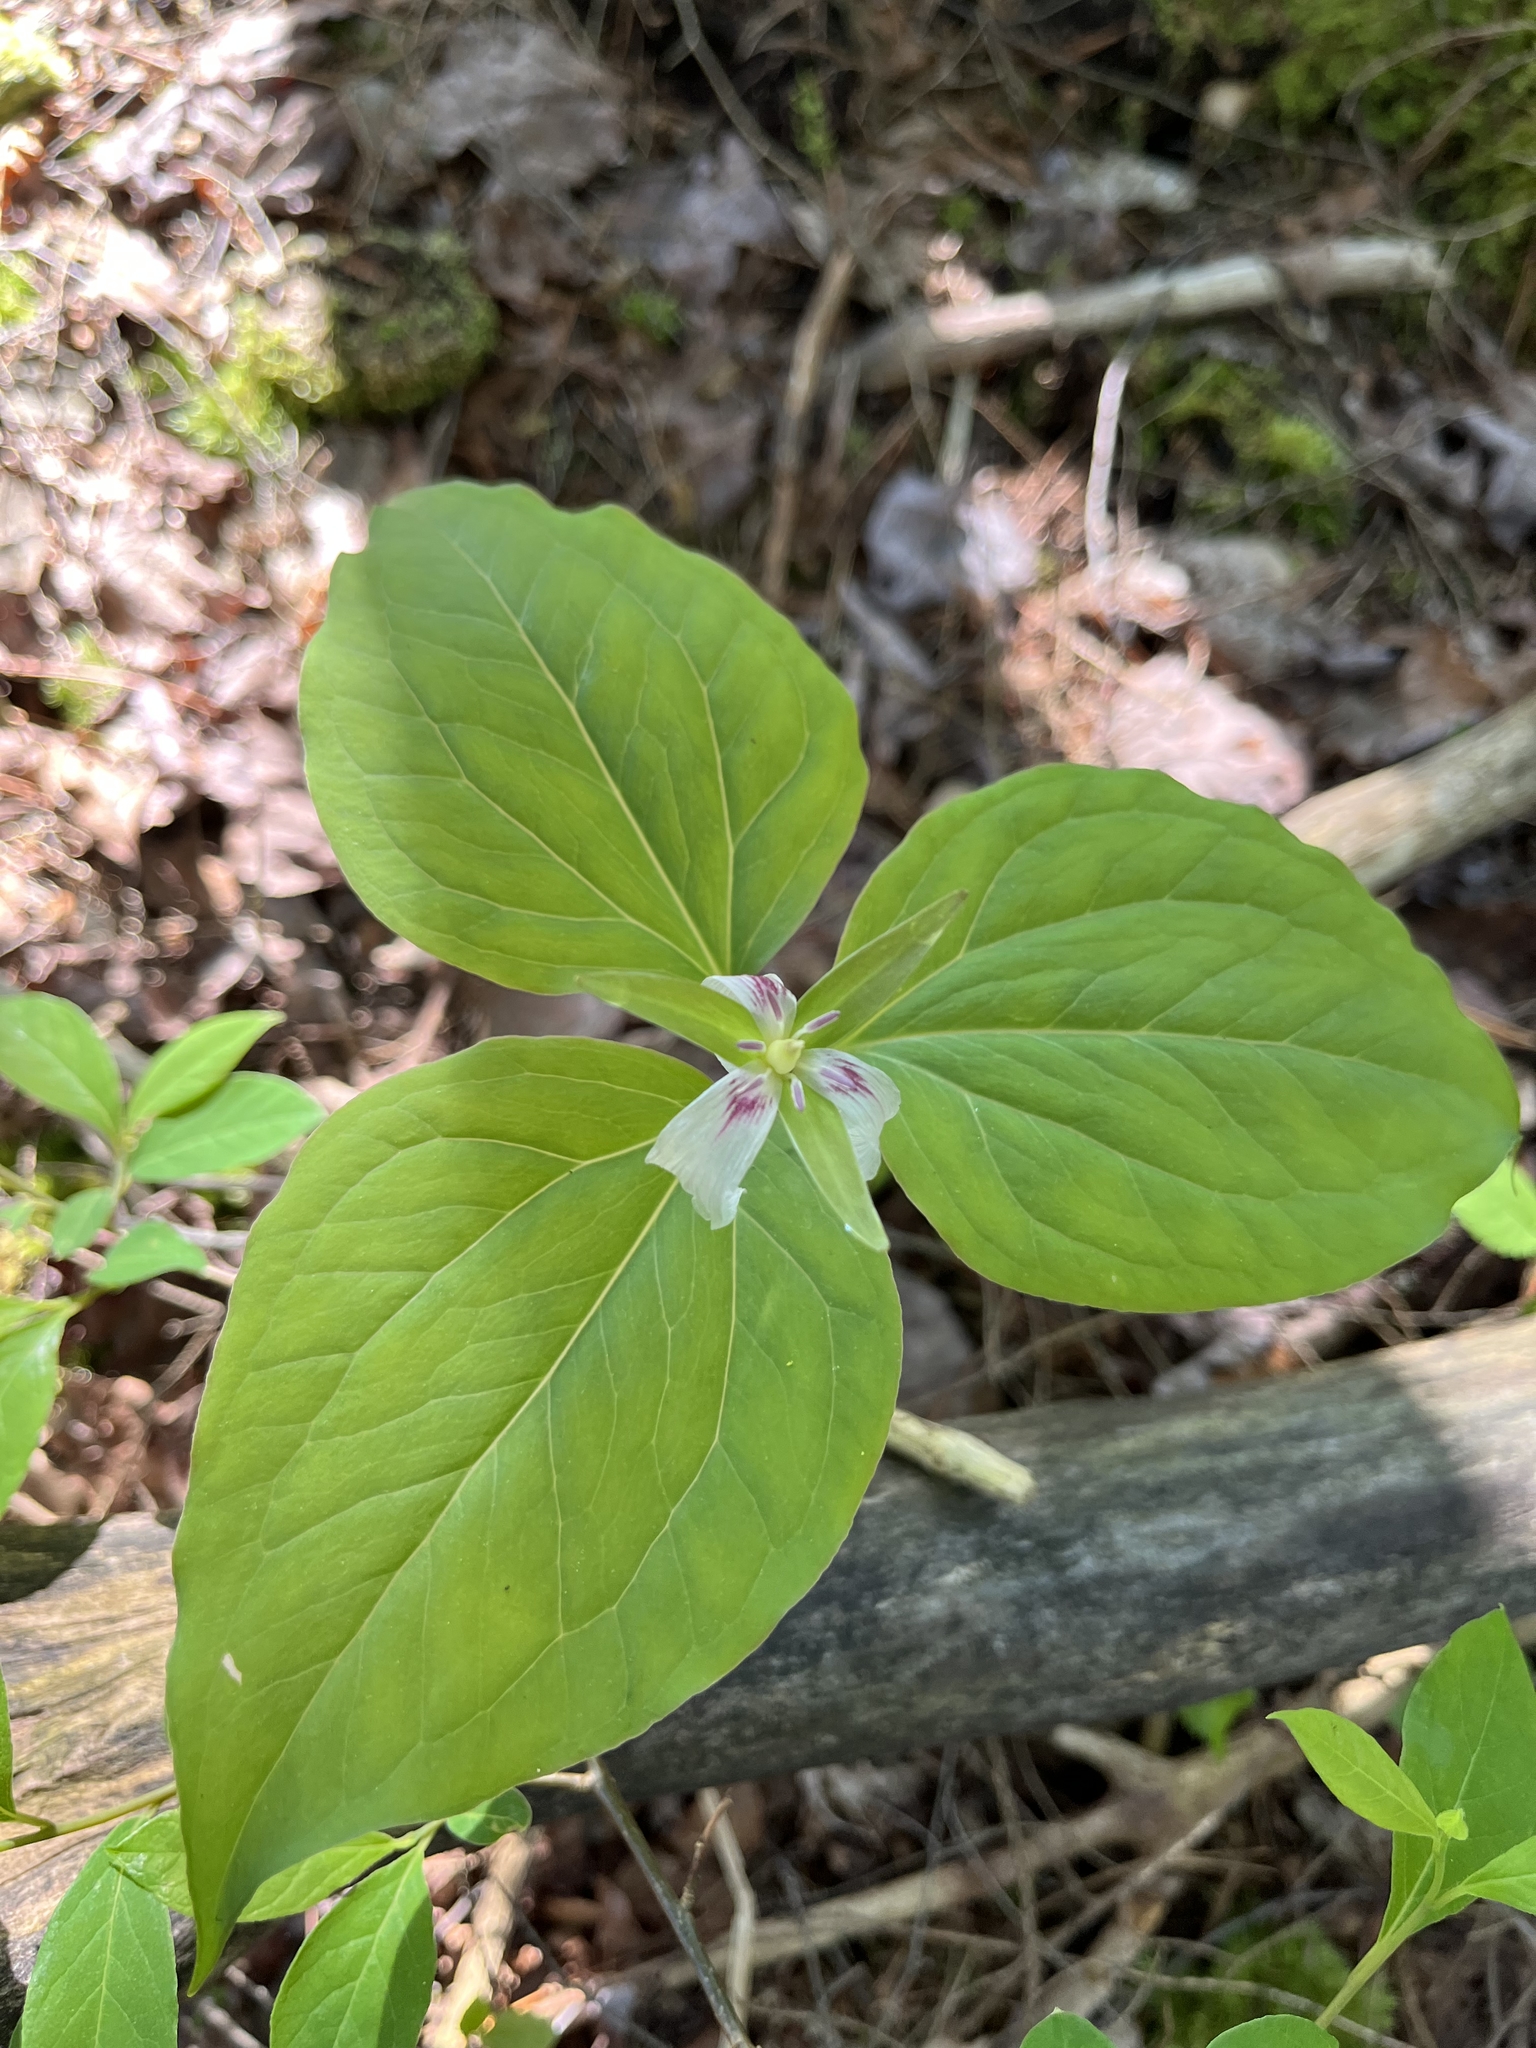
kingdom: Plantae
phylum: Tracheophyta
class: Liliopsida
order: Liliales
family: Melanthiaceae
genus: Trillium
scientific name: Trillium undulatum
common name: Paint trillium
